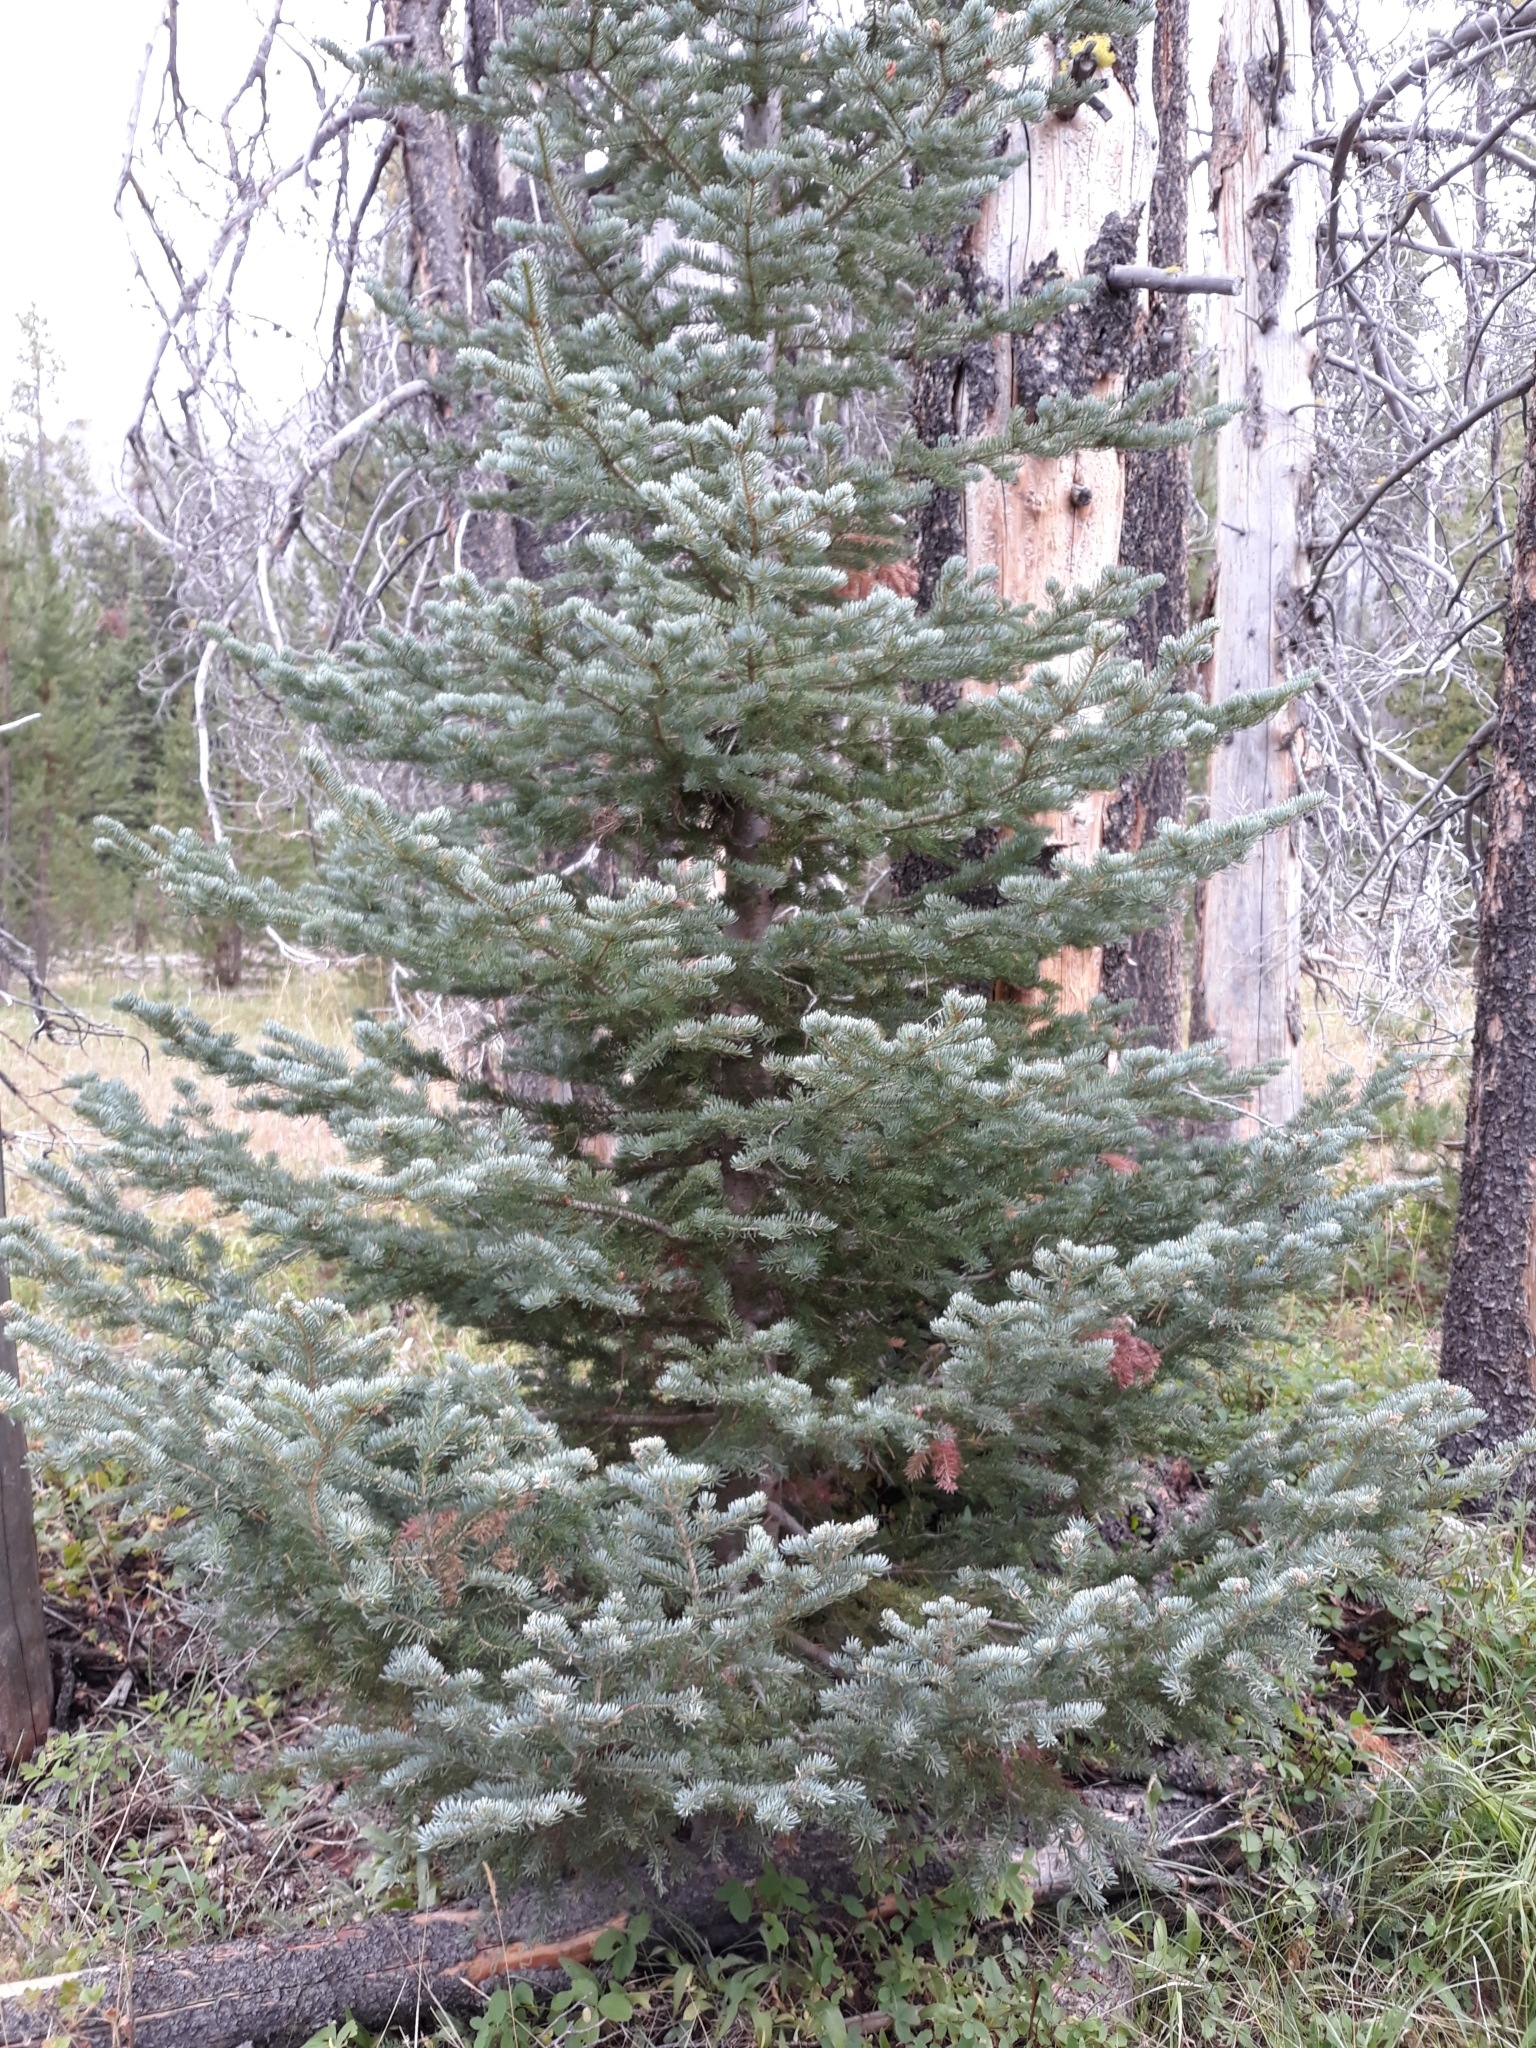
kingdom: Plantae
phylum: Tracheophyta
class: Pinopsida
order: Pinales
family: Pinaceae
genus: Abies
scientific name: Abies lasiocarpa
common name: Subalpine fir
